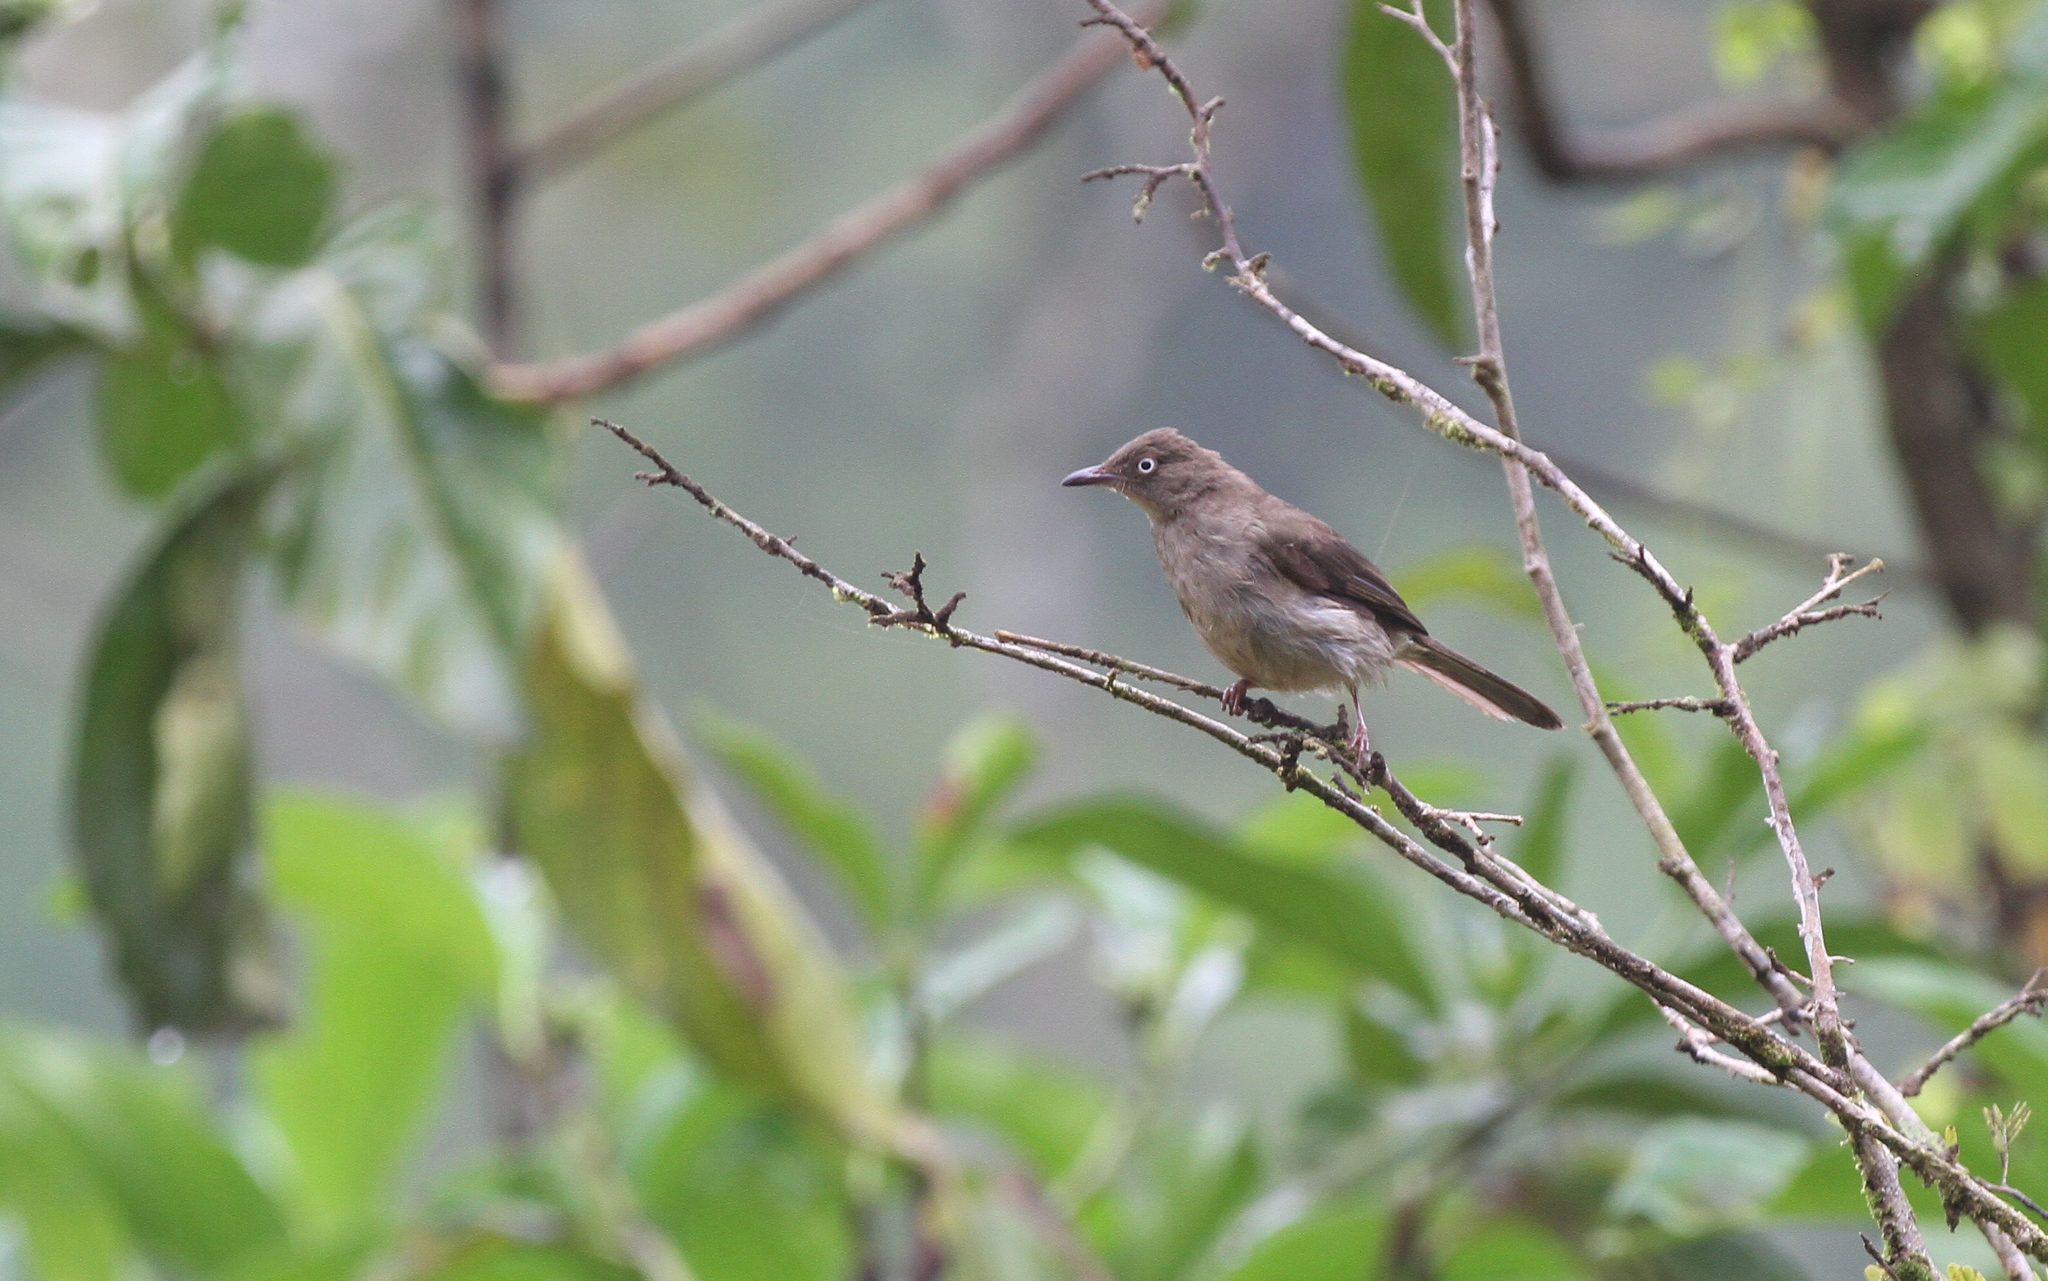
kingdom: Animalia
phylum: Chordata
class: Aves
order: Passeriformes
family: Pycnonotidae
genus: Pycnonotus
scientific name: Pycnonotus simplex
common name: Cream-vented bulbul
